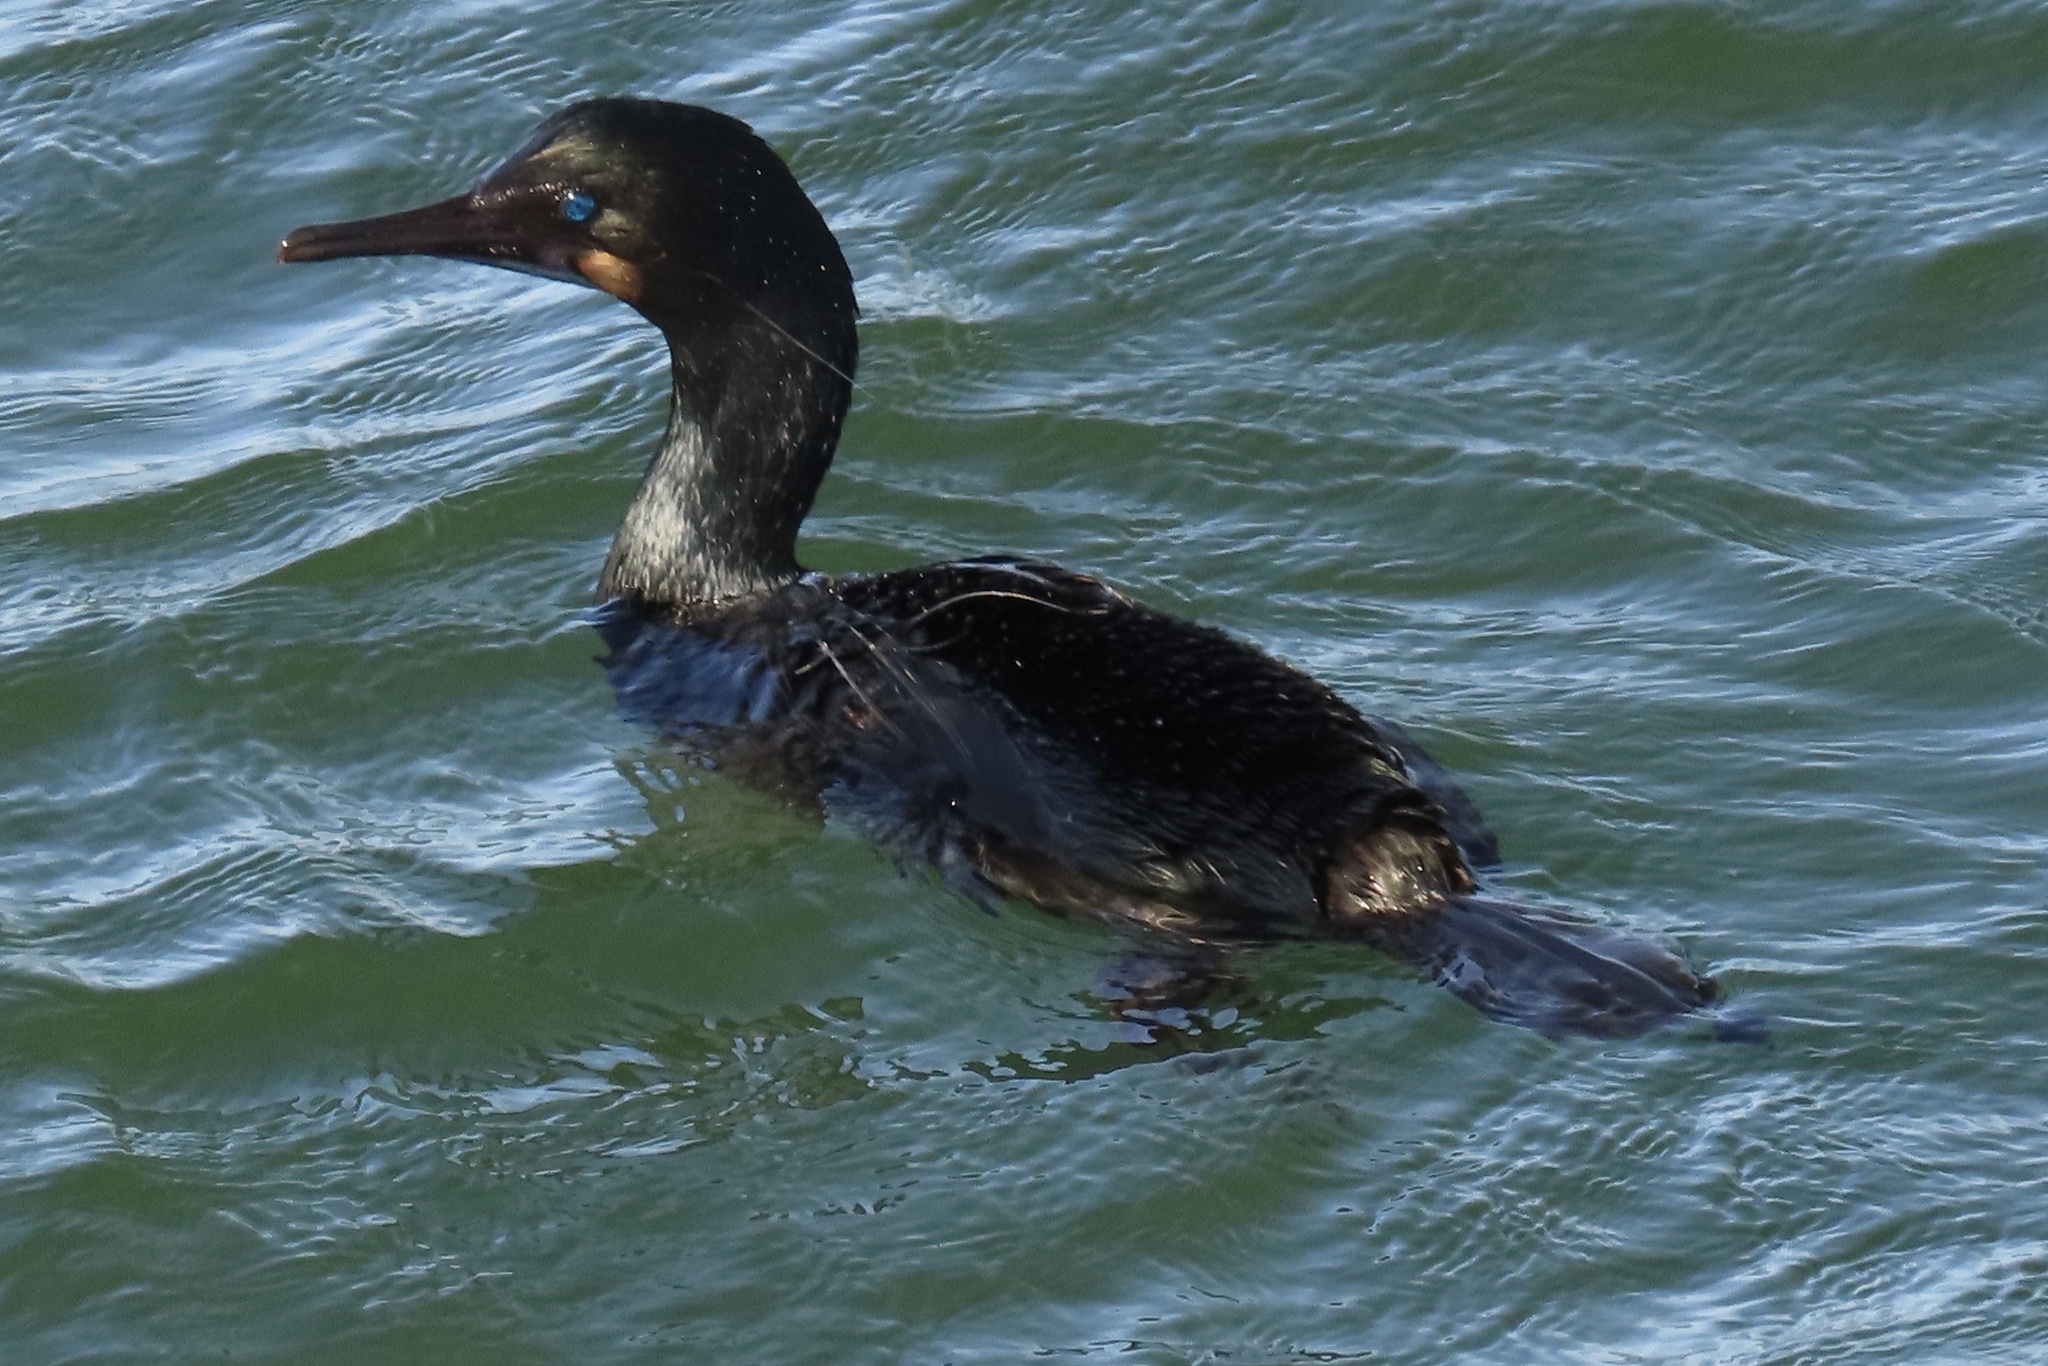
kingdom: Animalia
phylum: Chordata
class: Aves
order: Suliformes
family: Phalacrocoracidae
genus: Urile
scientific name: Urile penicillatus
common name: Brandt's cormorant
